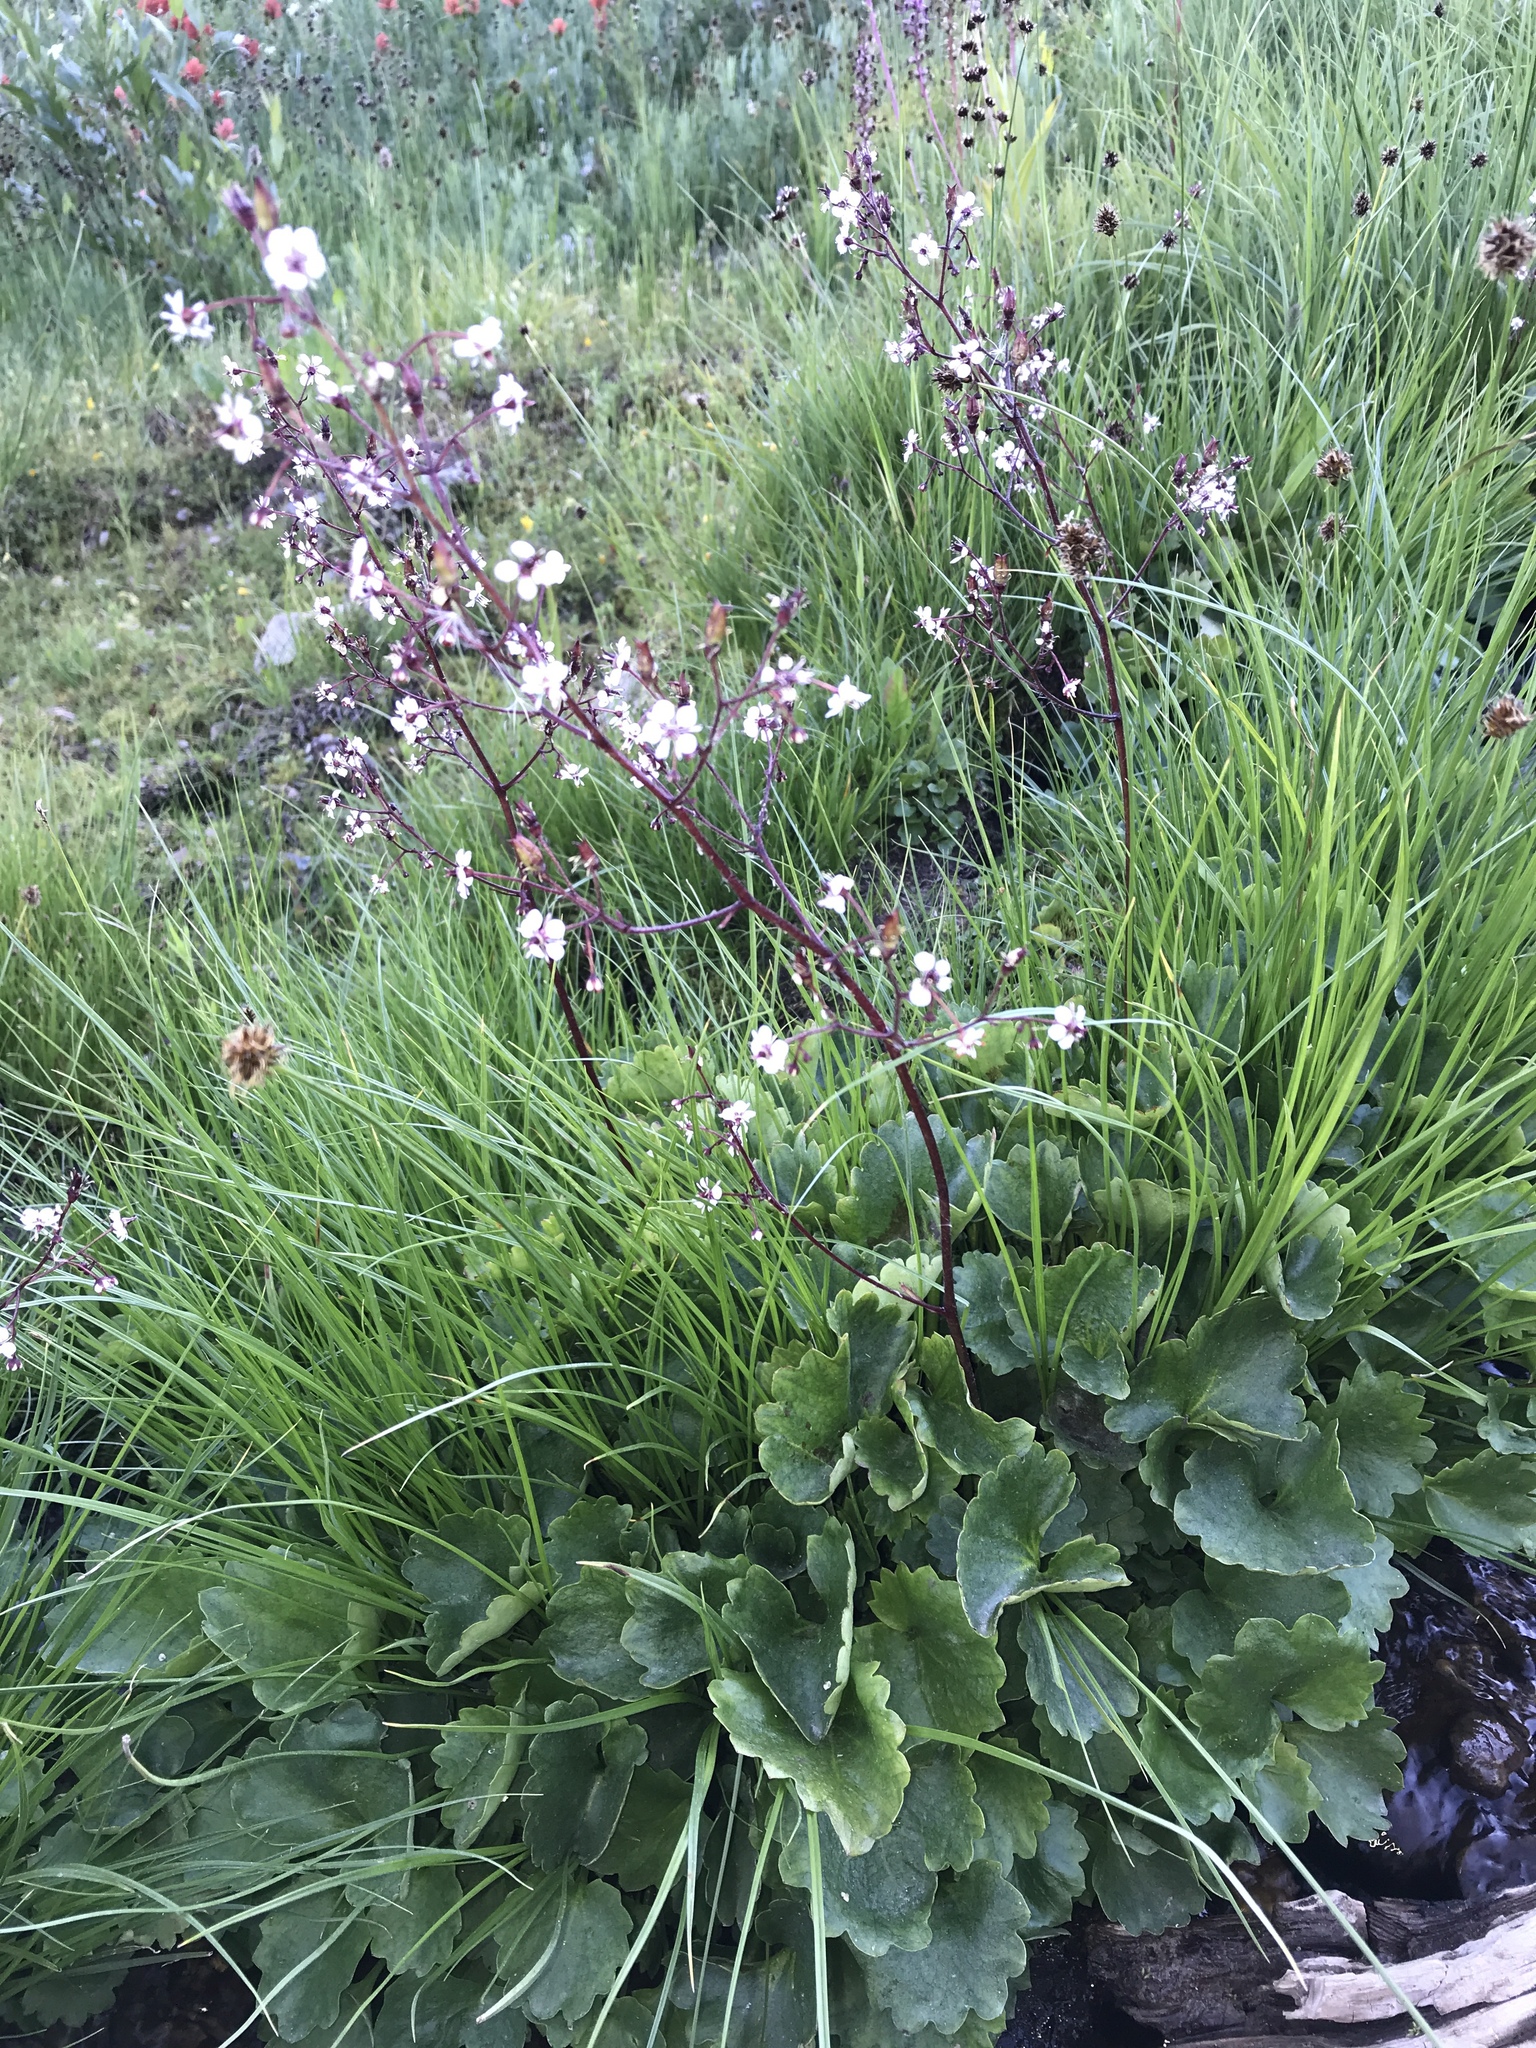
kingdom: Plantae
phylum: Tracheophyta
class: Magnoliopsida
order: Saxifragales
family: Saxifragaceae
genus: Micranthes
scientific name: Micranthes odontoloma
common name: Brook saxifrage
